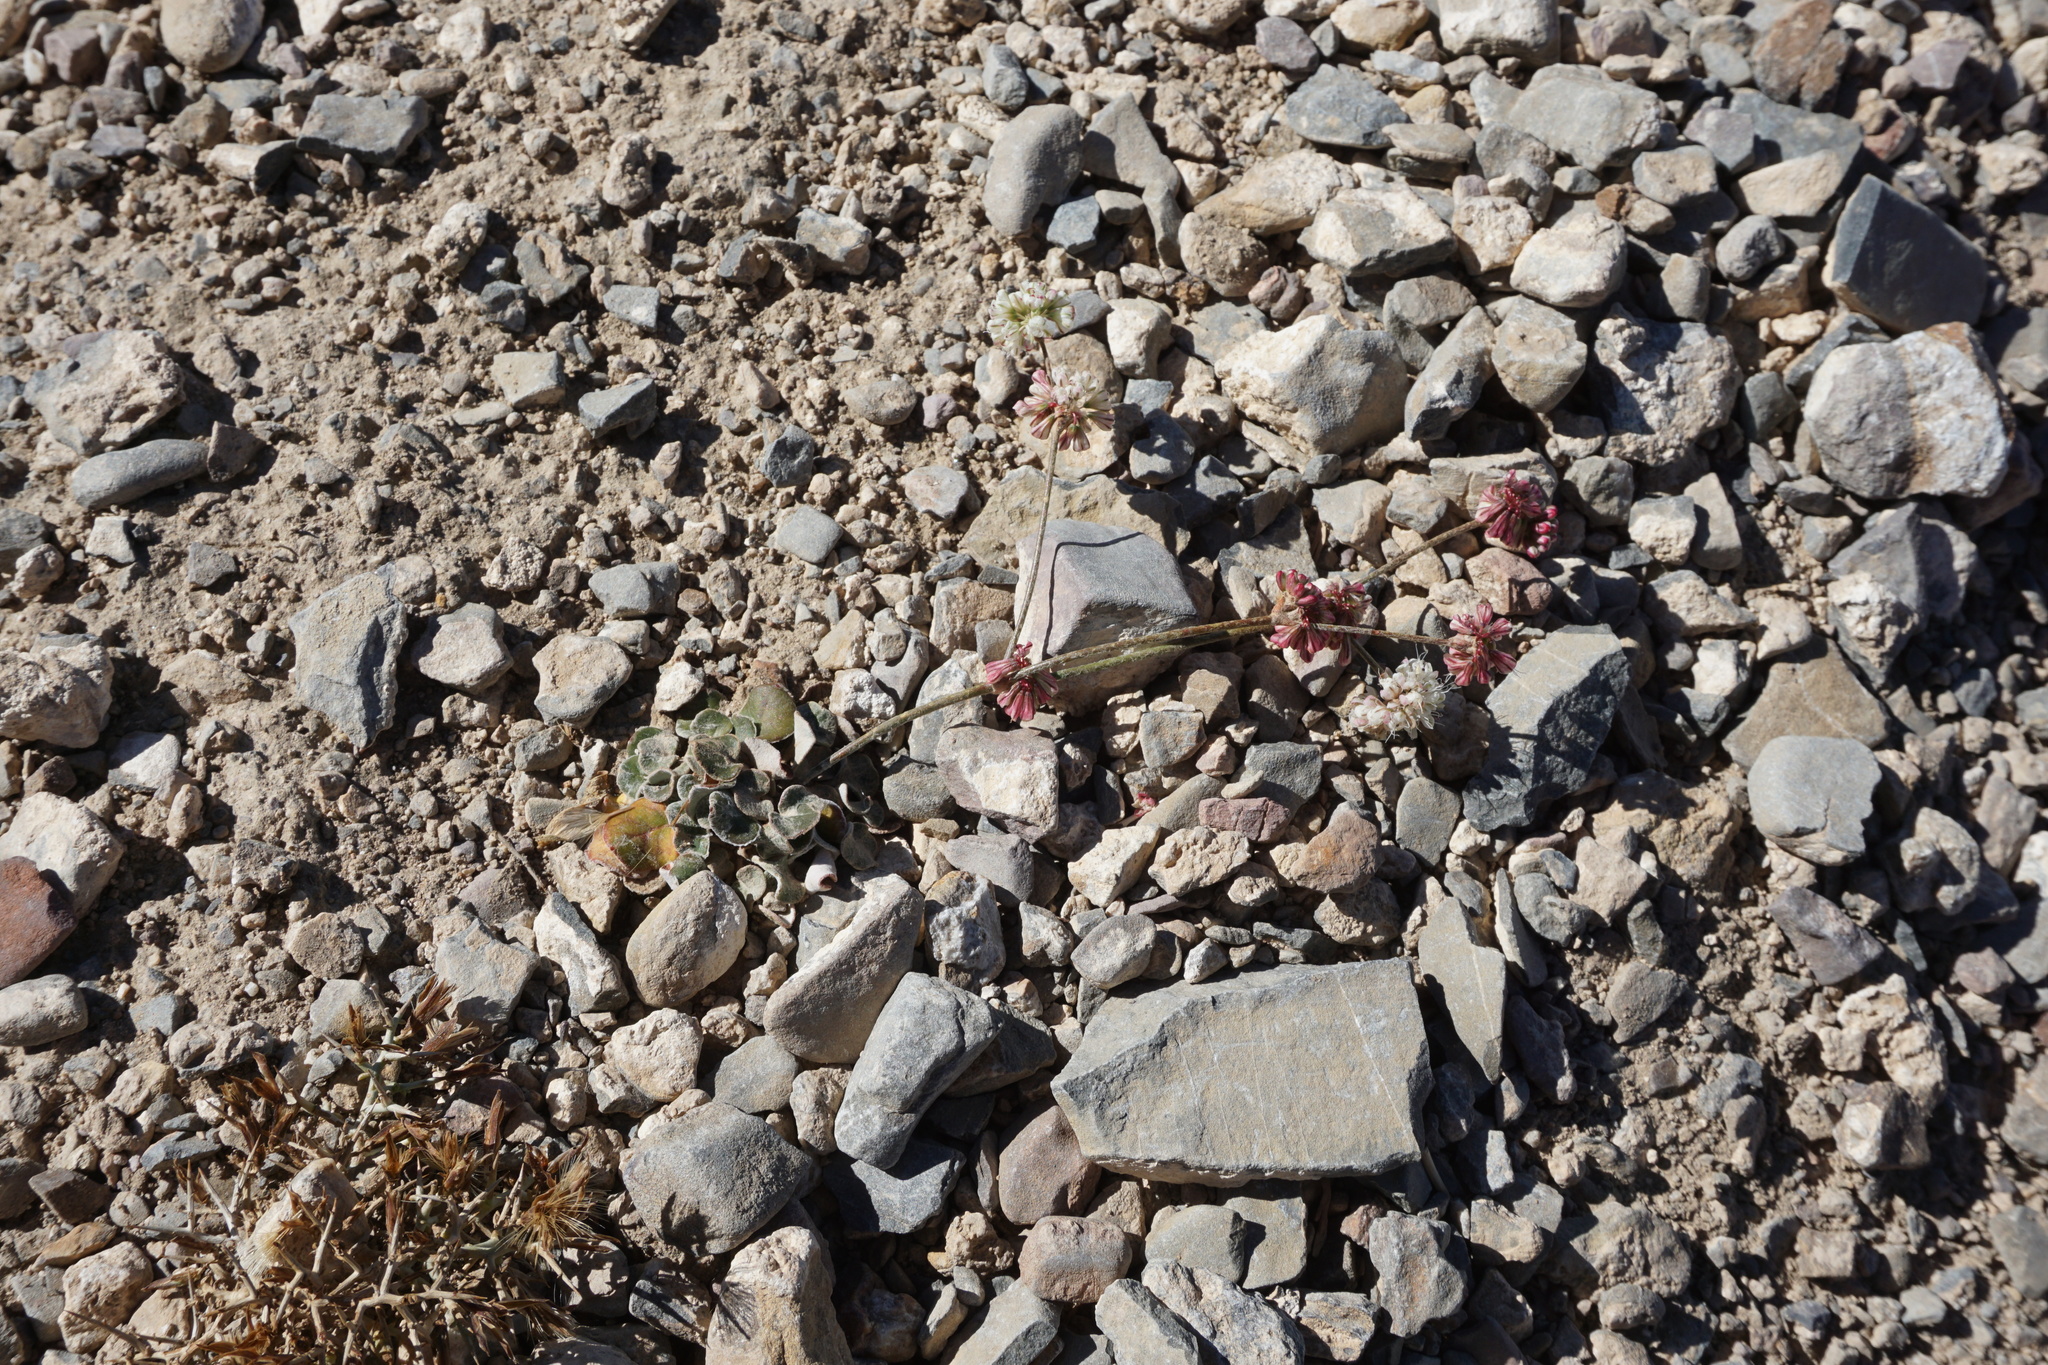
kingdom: Plantae
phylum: Tracheophyta
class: Magnoliopsida
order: Caryophyllales
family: Polygonaceae
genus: Eriogonum
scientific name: Eriogonum mensicola
